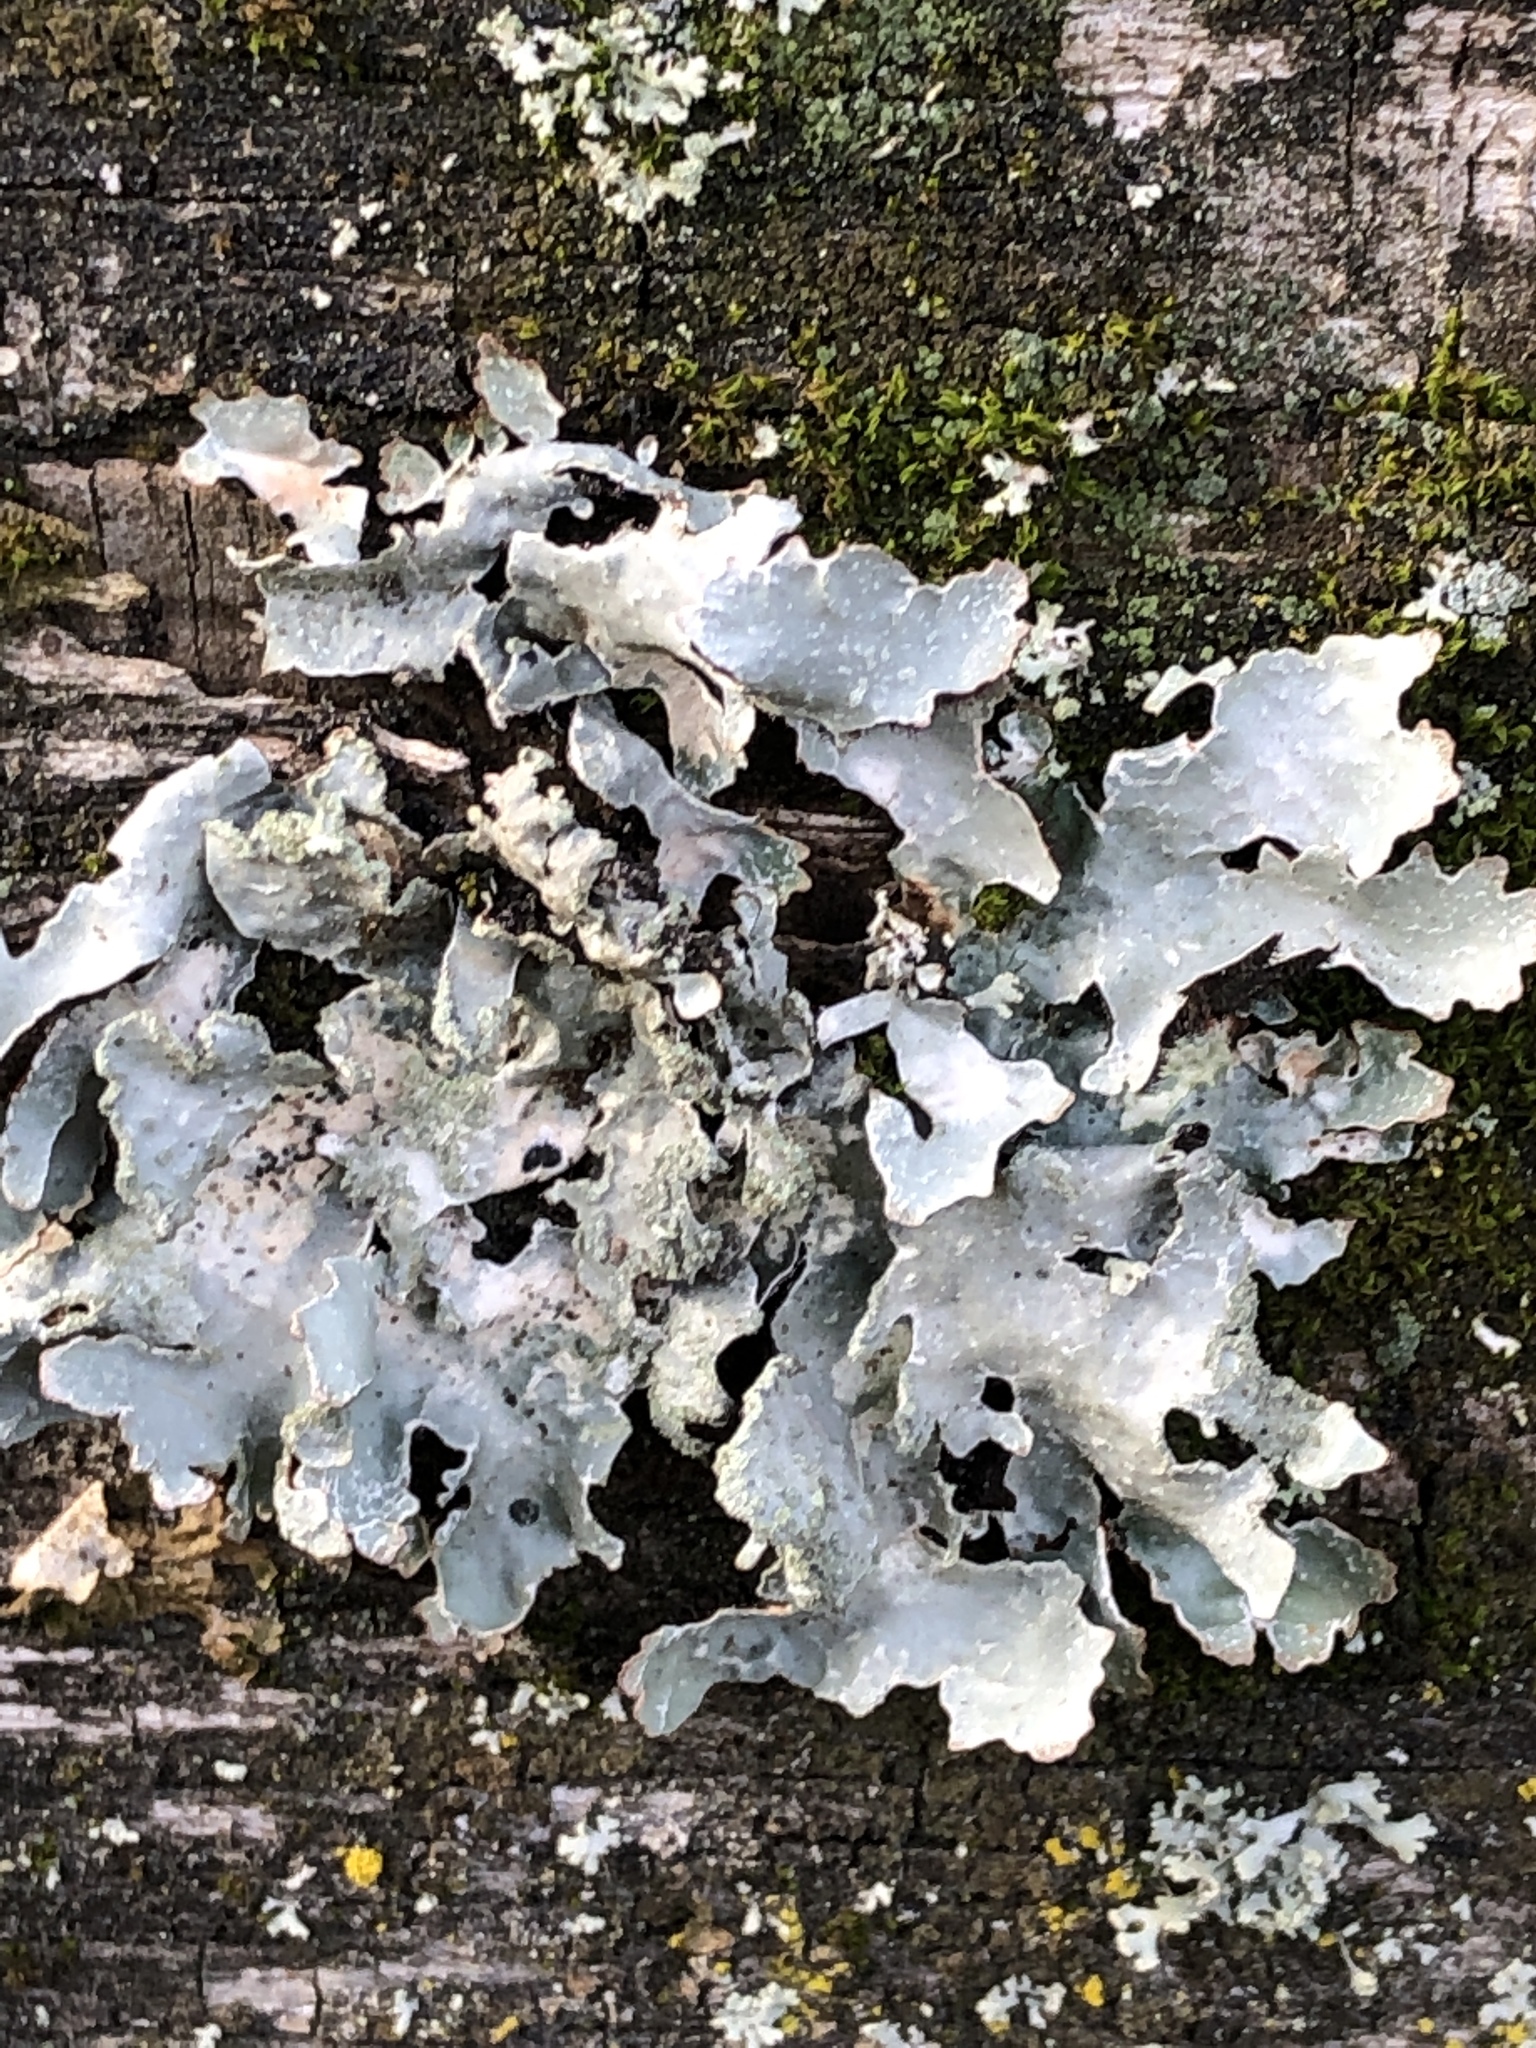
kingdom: Fungi
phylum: Ascomycota
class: Lecanoromycetes
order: Lecanorales
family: Parmeliaceae
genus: Parmelia
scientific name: Parmelia sulcata
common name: Netted shield lichen
